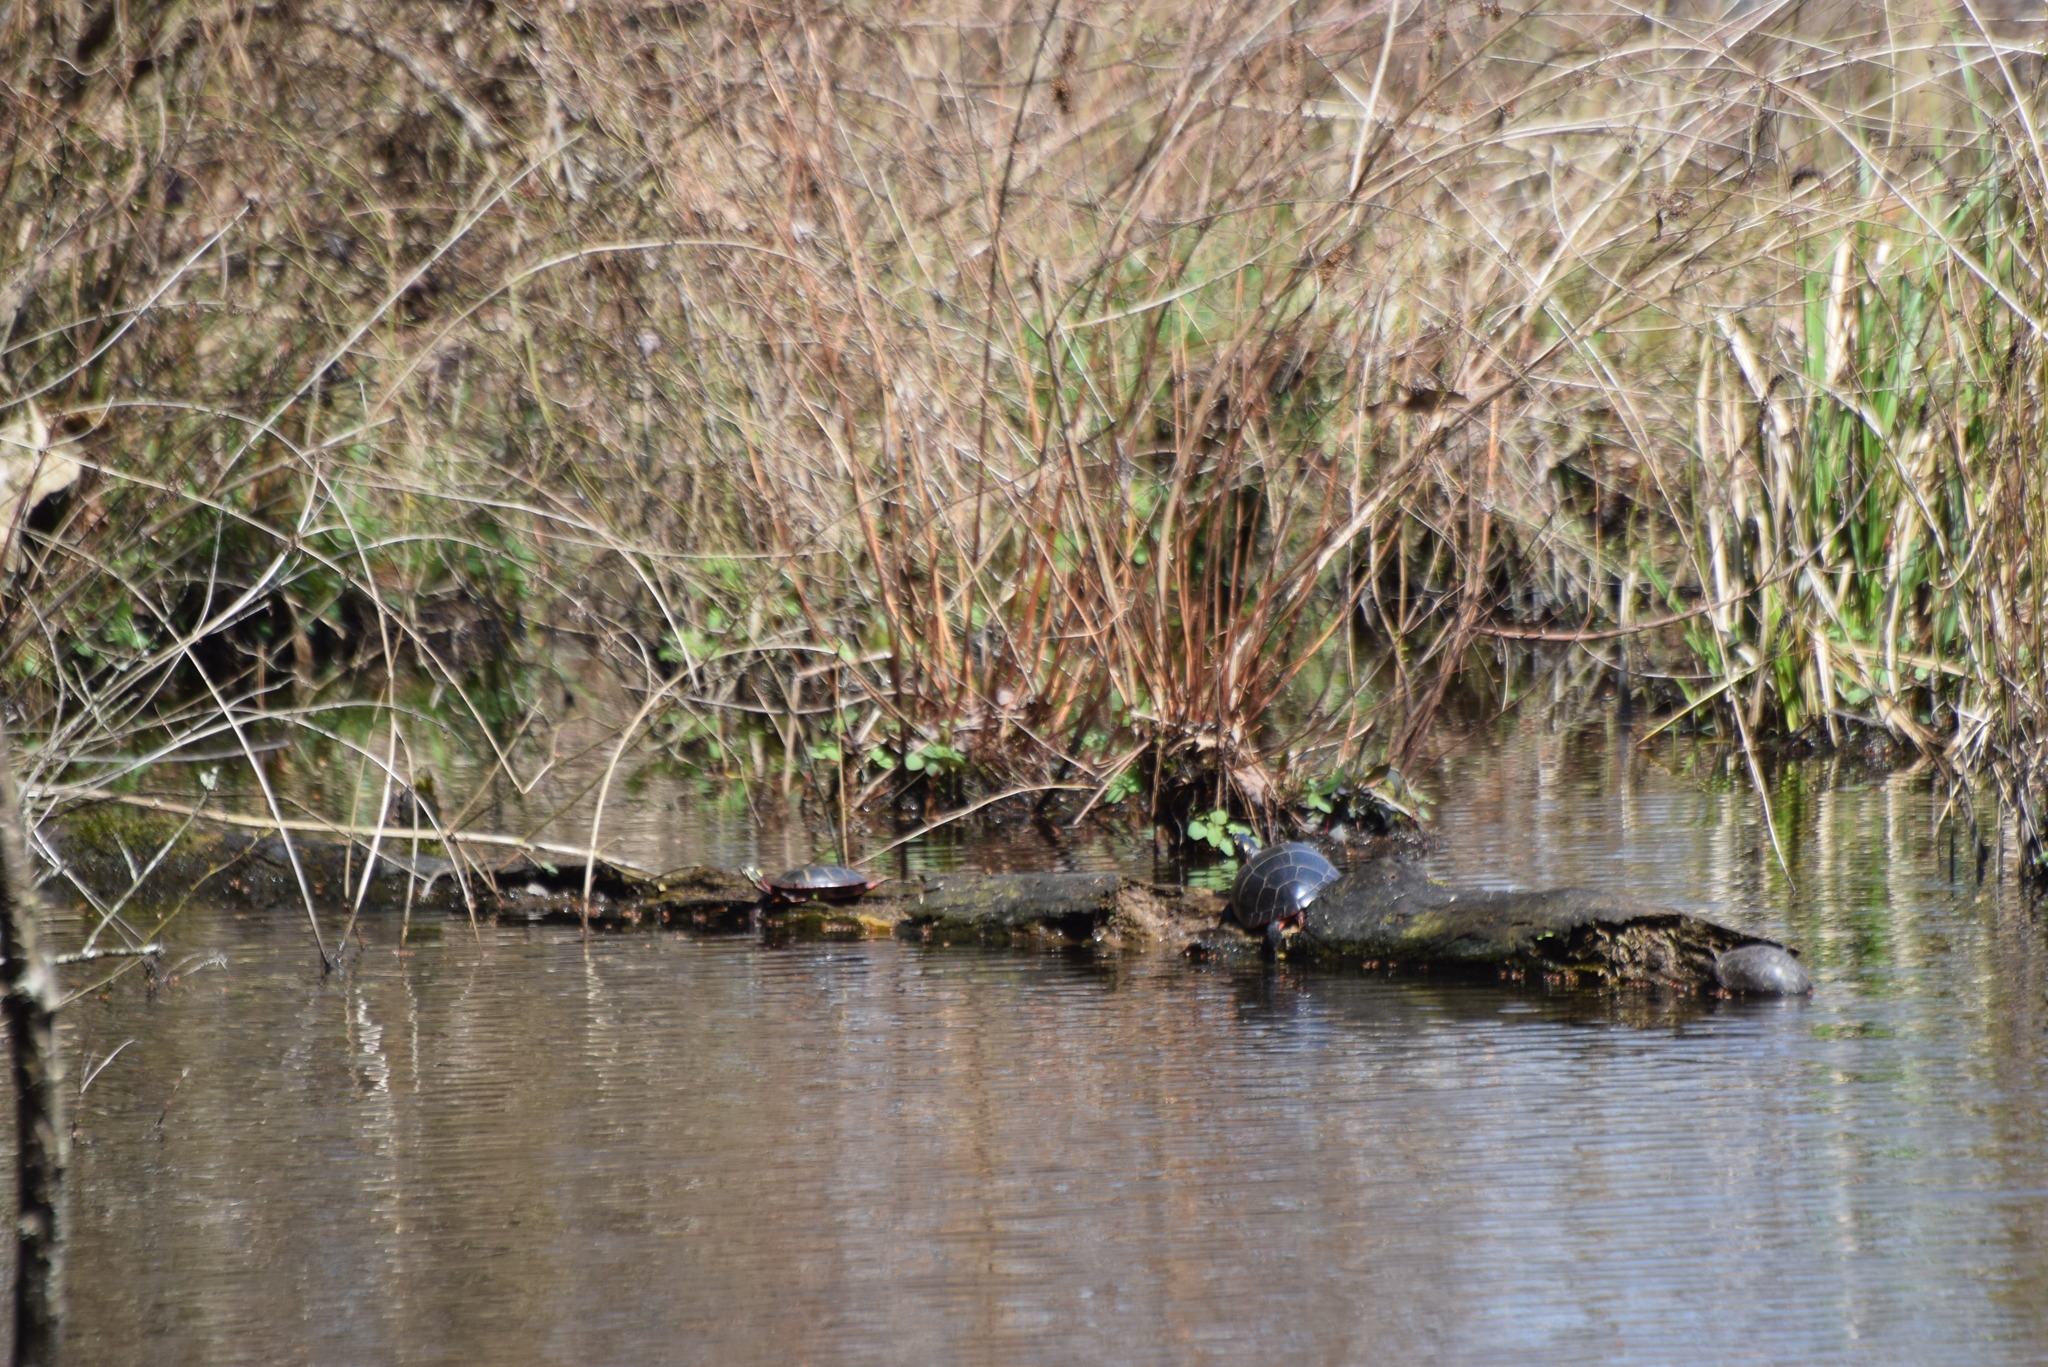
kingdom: Animalia
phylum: Chordata
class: Testudines
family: Emydidae
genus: Chrysemys
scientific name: Chrysemys picta
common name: Painted turtle
